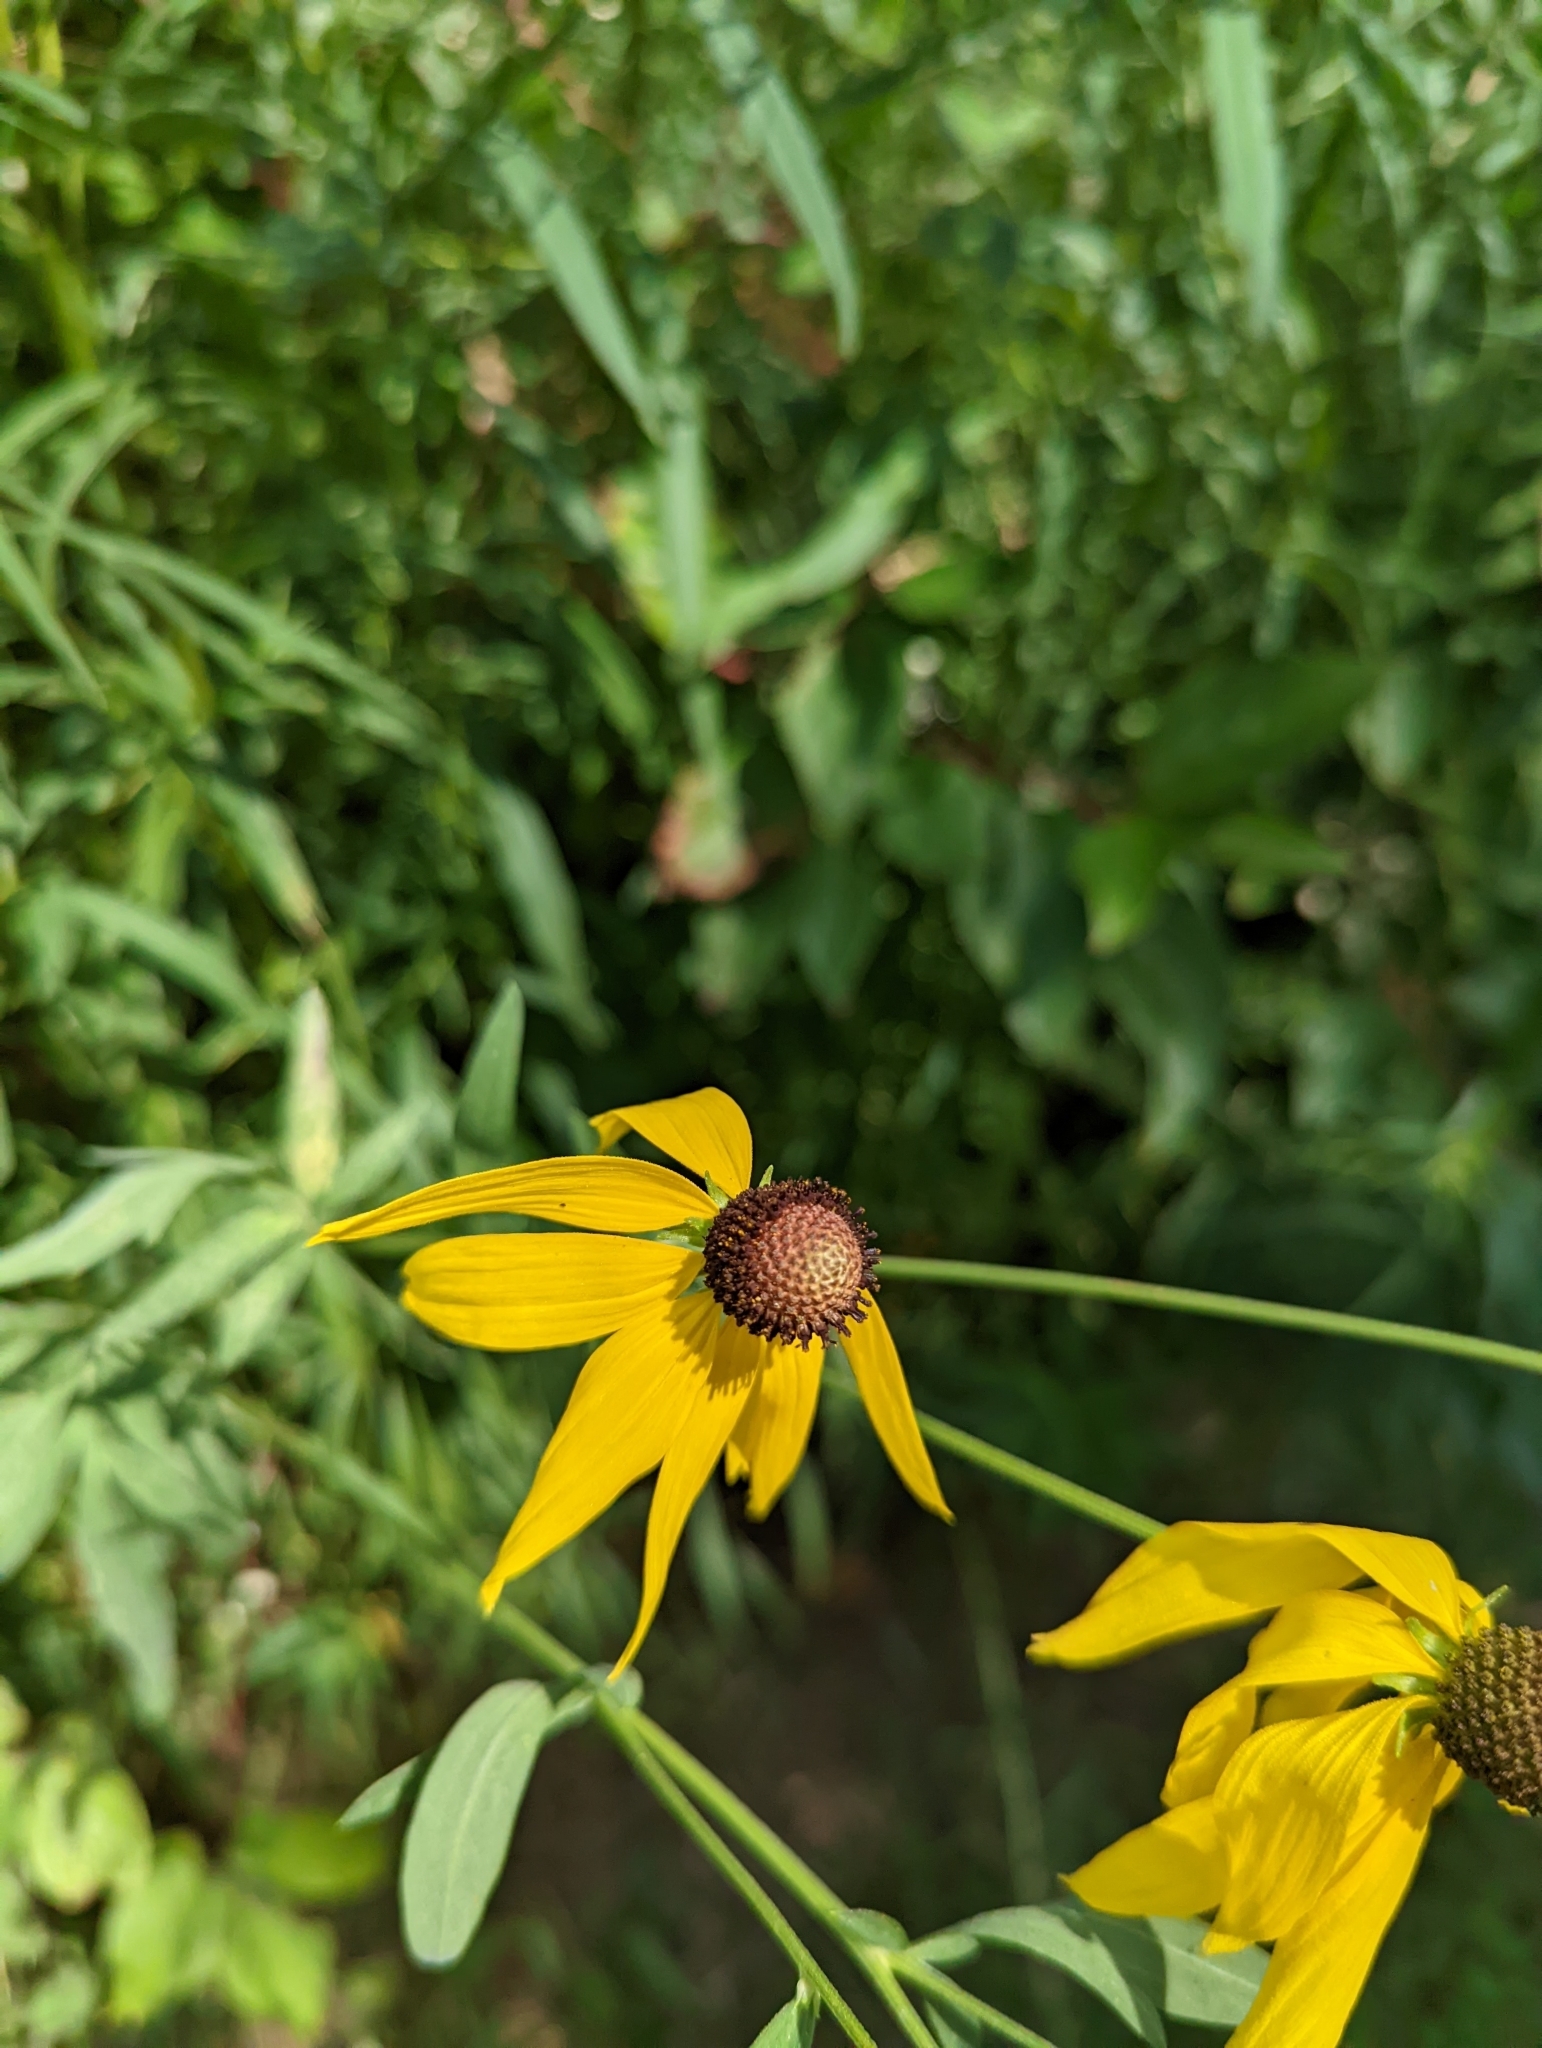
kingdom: Plantae
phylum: Tracheophyta
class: Magnoliopsida
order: Asterales
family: Asteraceae
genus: Ratibida
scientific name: Ratibida pinnata
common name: Drooping prairie-coneflower
